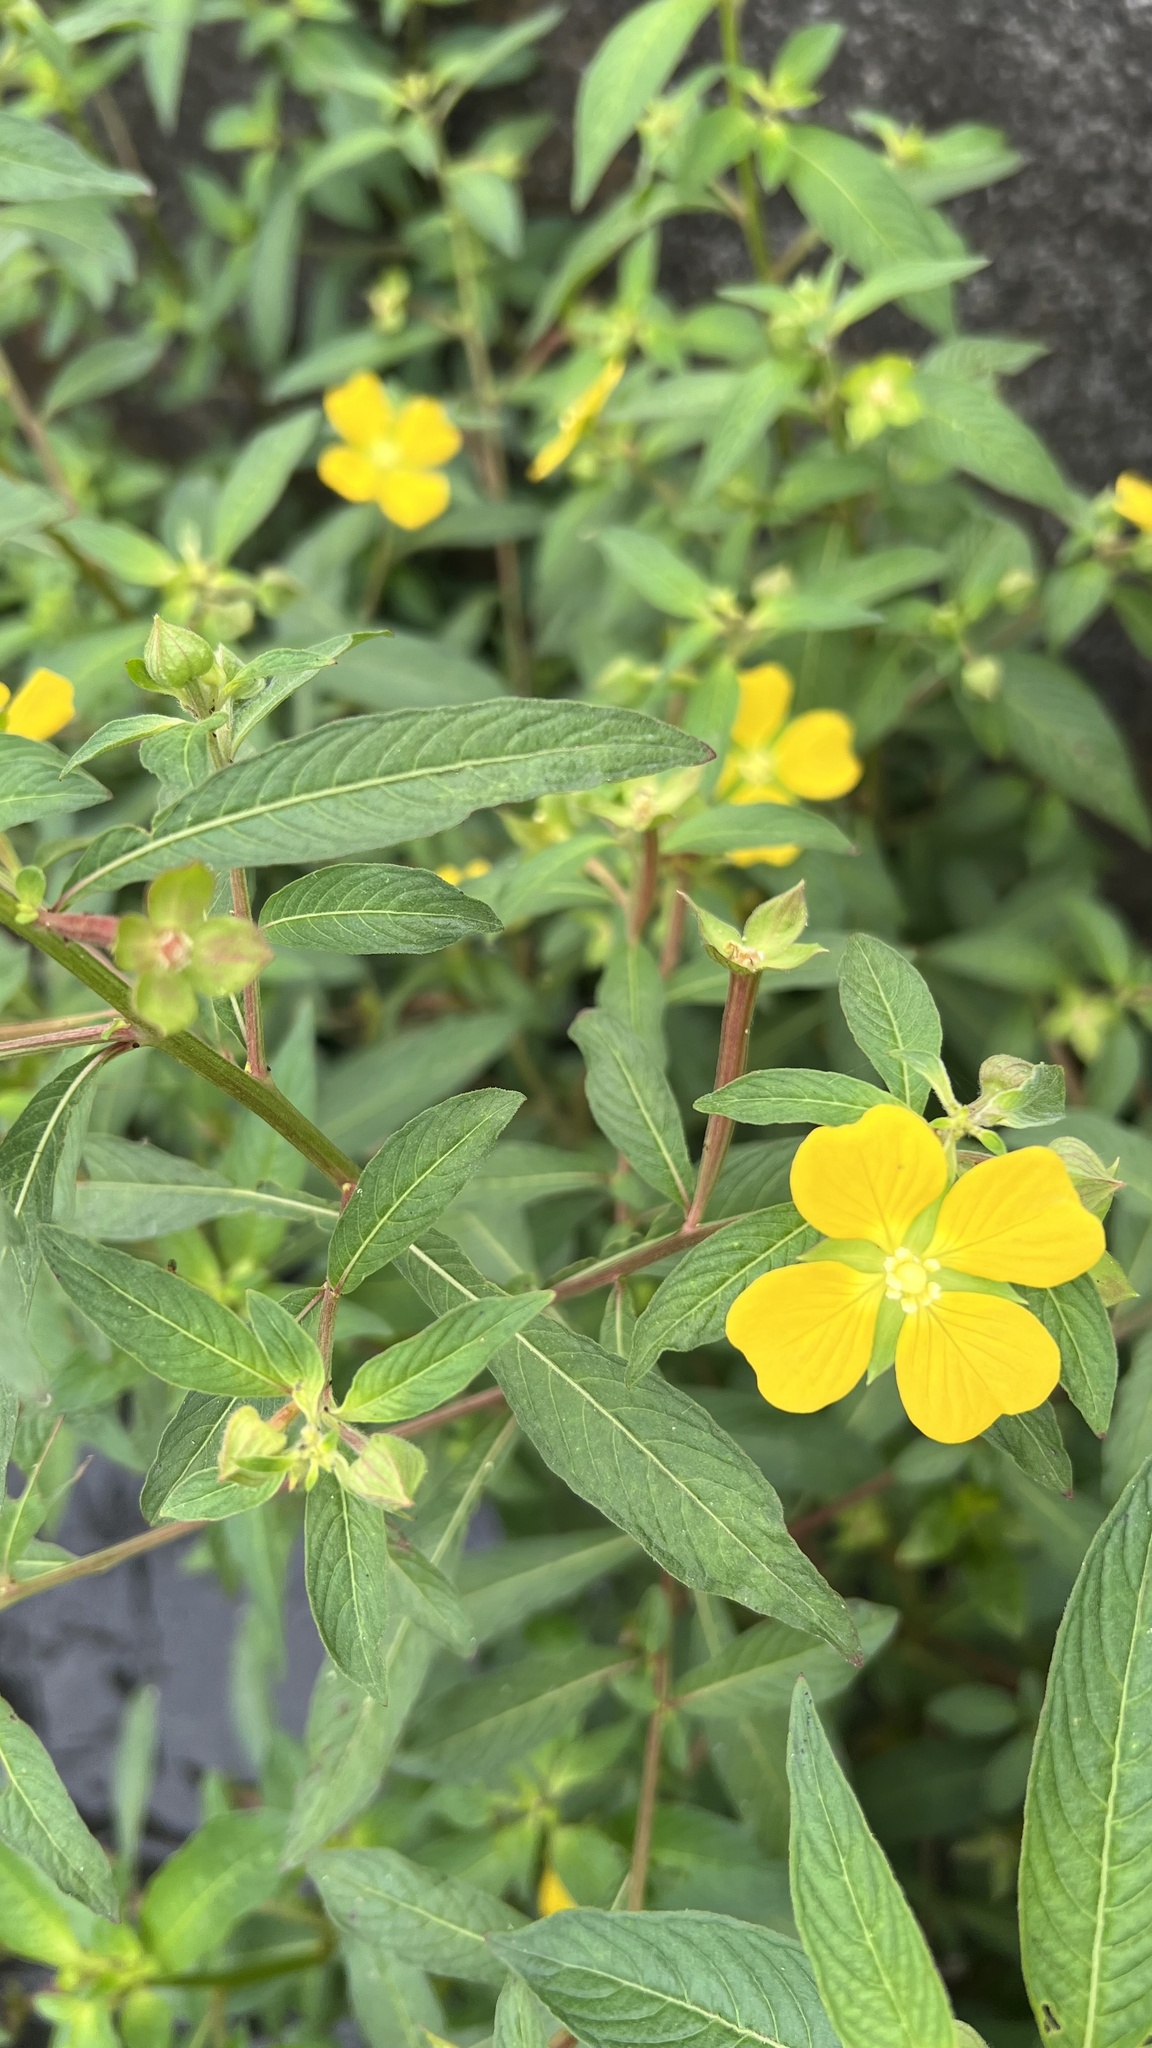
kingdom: Plantae
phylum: Tracheophyta
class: Magnoliopsida
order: Myrtales
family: Onagraceae
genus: Ludwigia
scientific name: Ludwigia octovalvis
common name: Water-primrose
